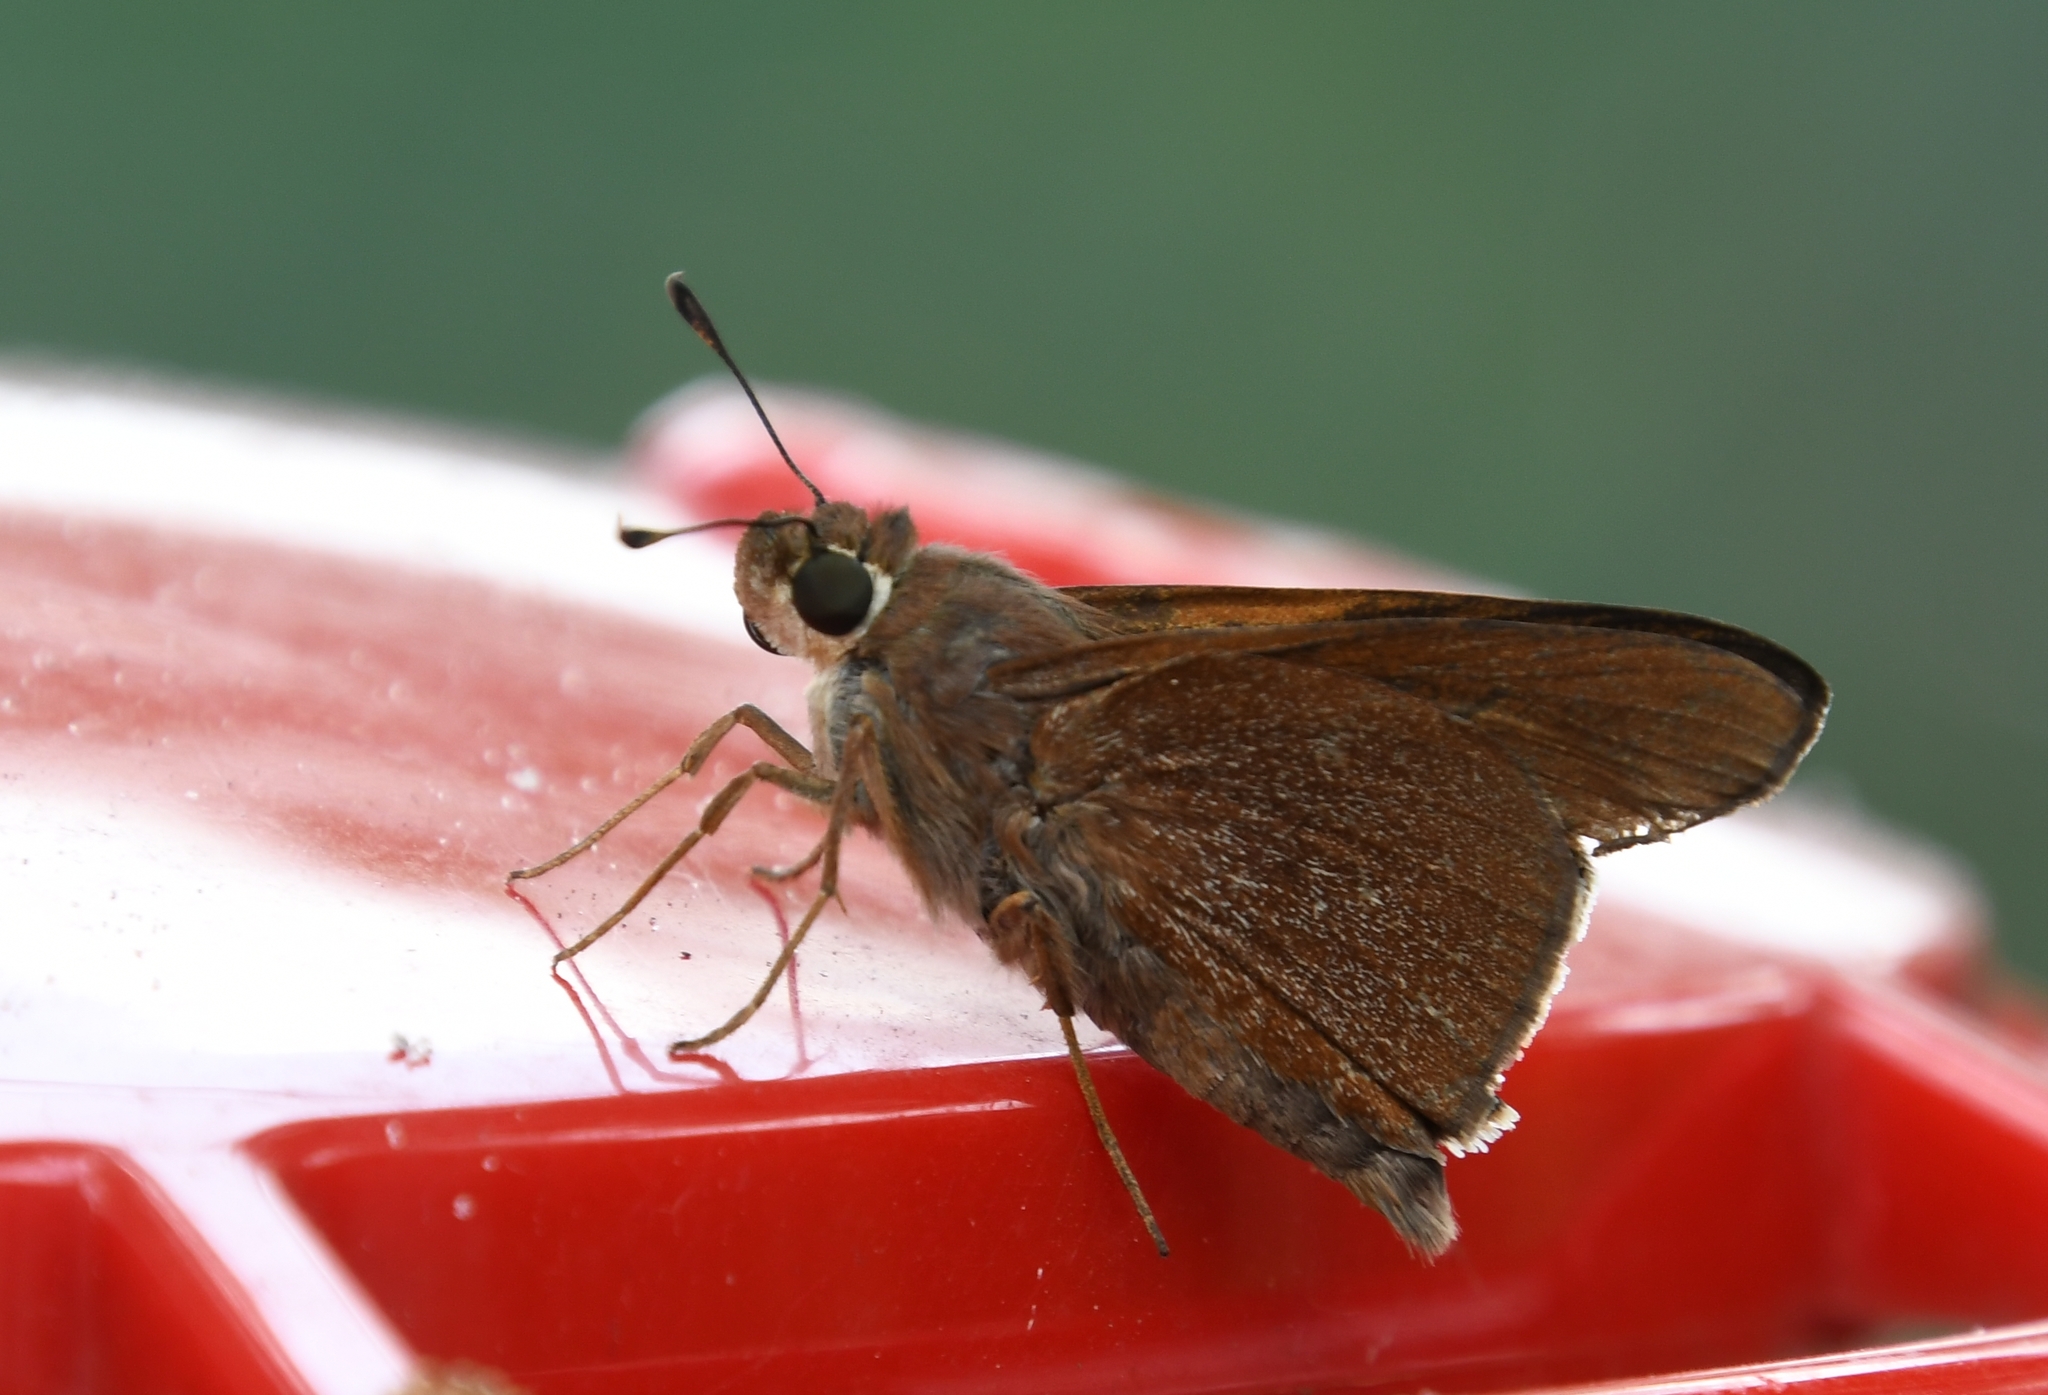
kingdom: Animalia
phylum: Arthropoda
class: Insecta
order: Lepidoptera
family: Hesperiidae
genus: Asbolis
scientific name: Asbolis capucinus
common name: Monk skipper
